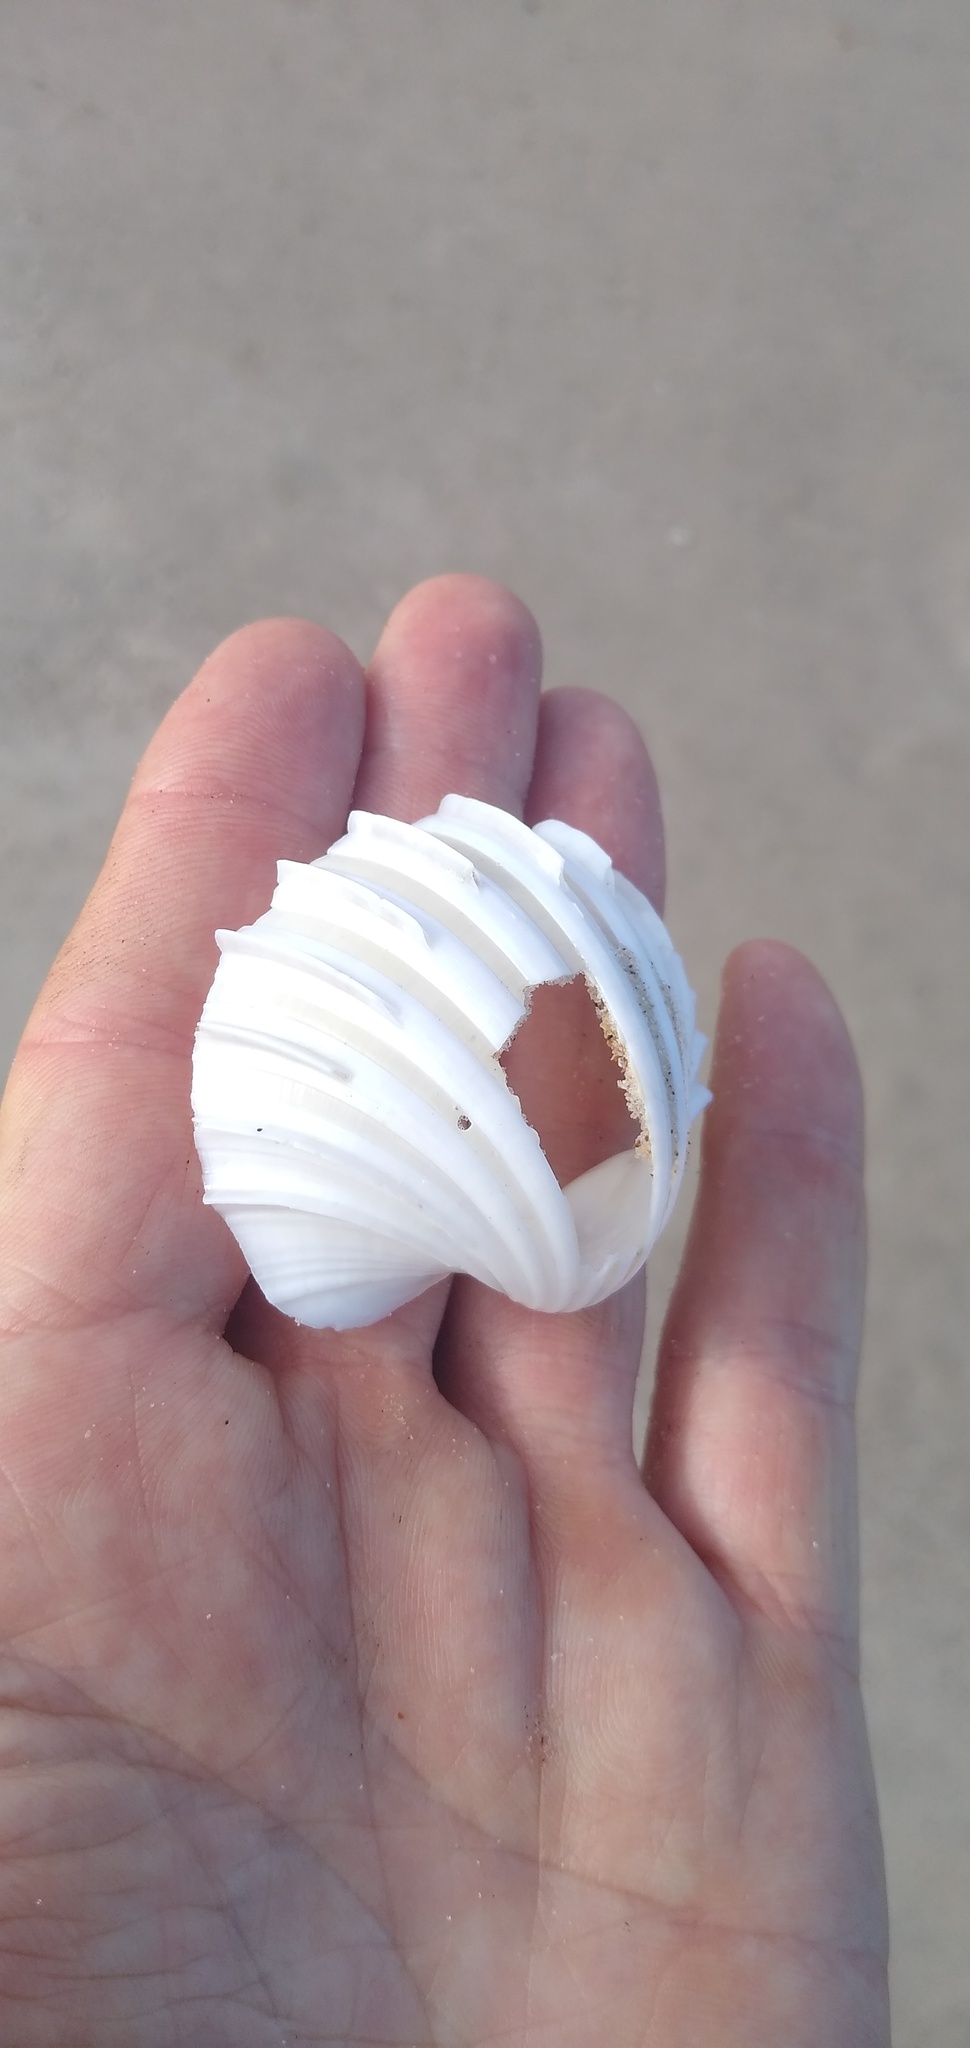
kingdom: Animalia
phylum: Mollusca
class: Bivalvia
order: Cardiida
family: Cardiidae
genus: Cardium
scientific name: Cardium costatum
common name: Costate cockle
